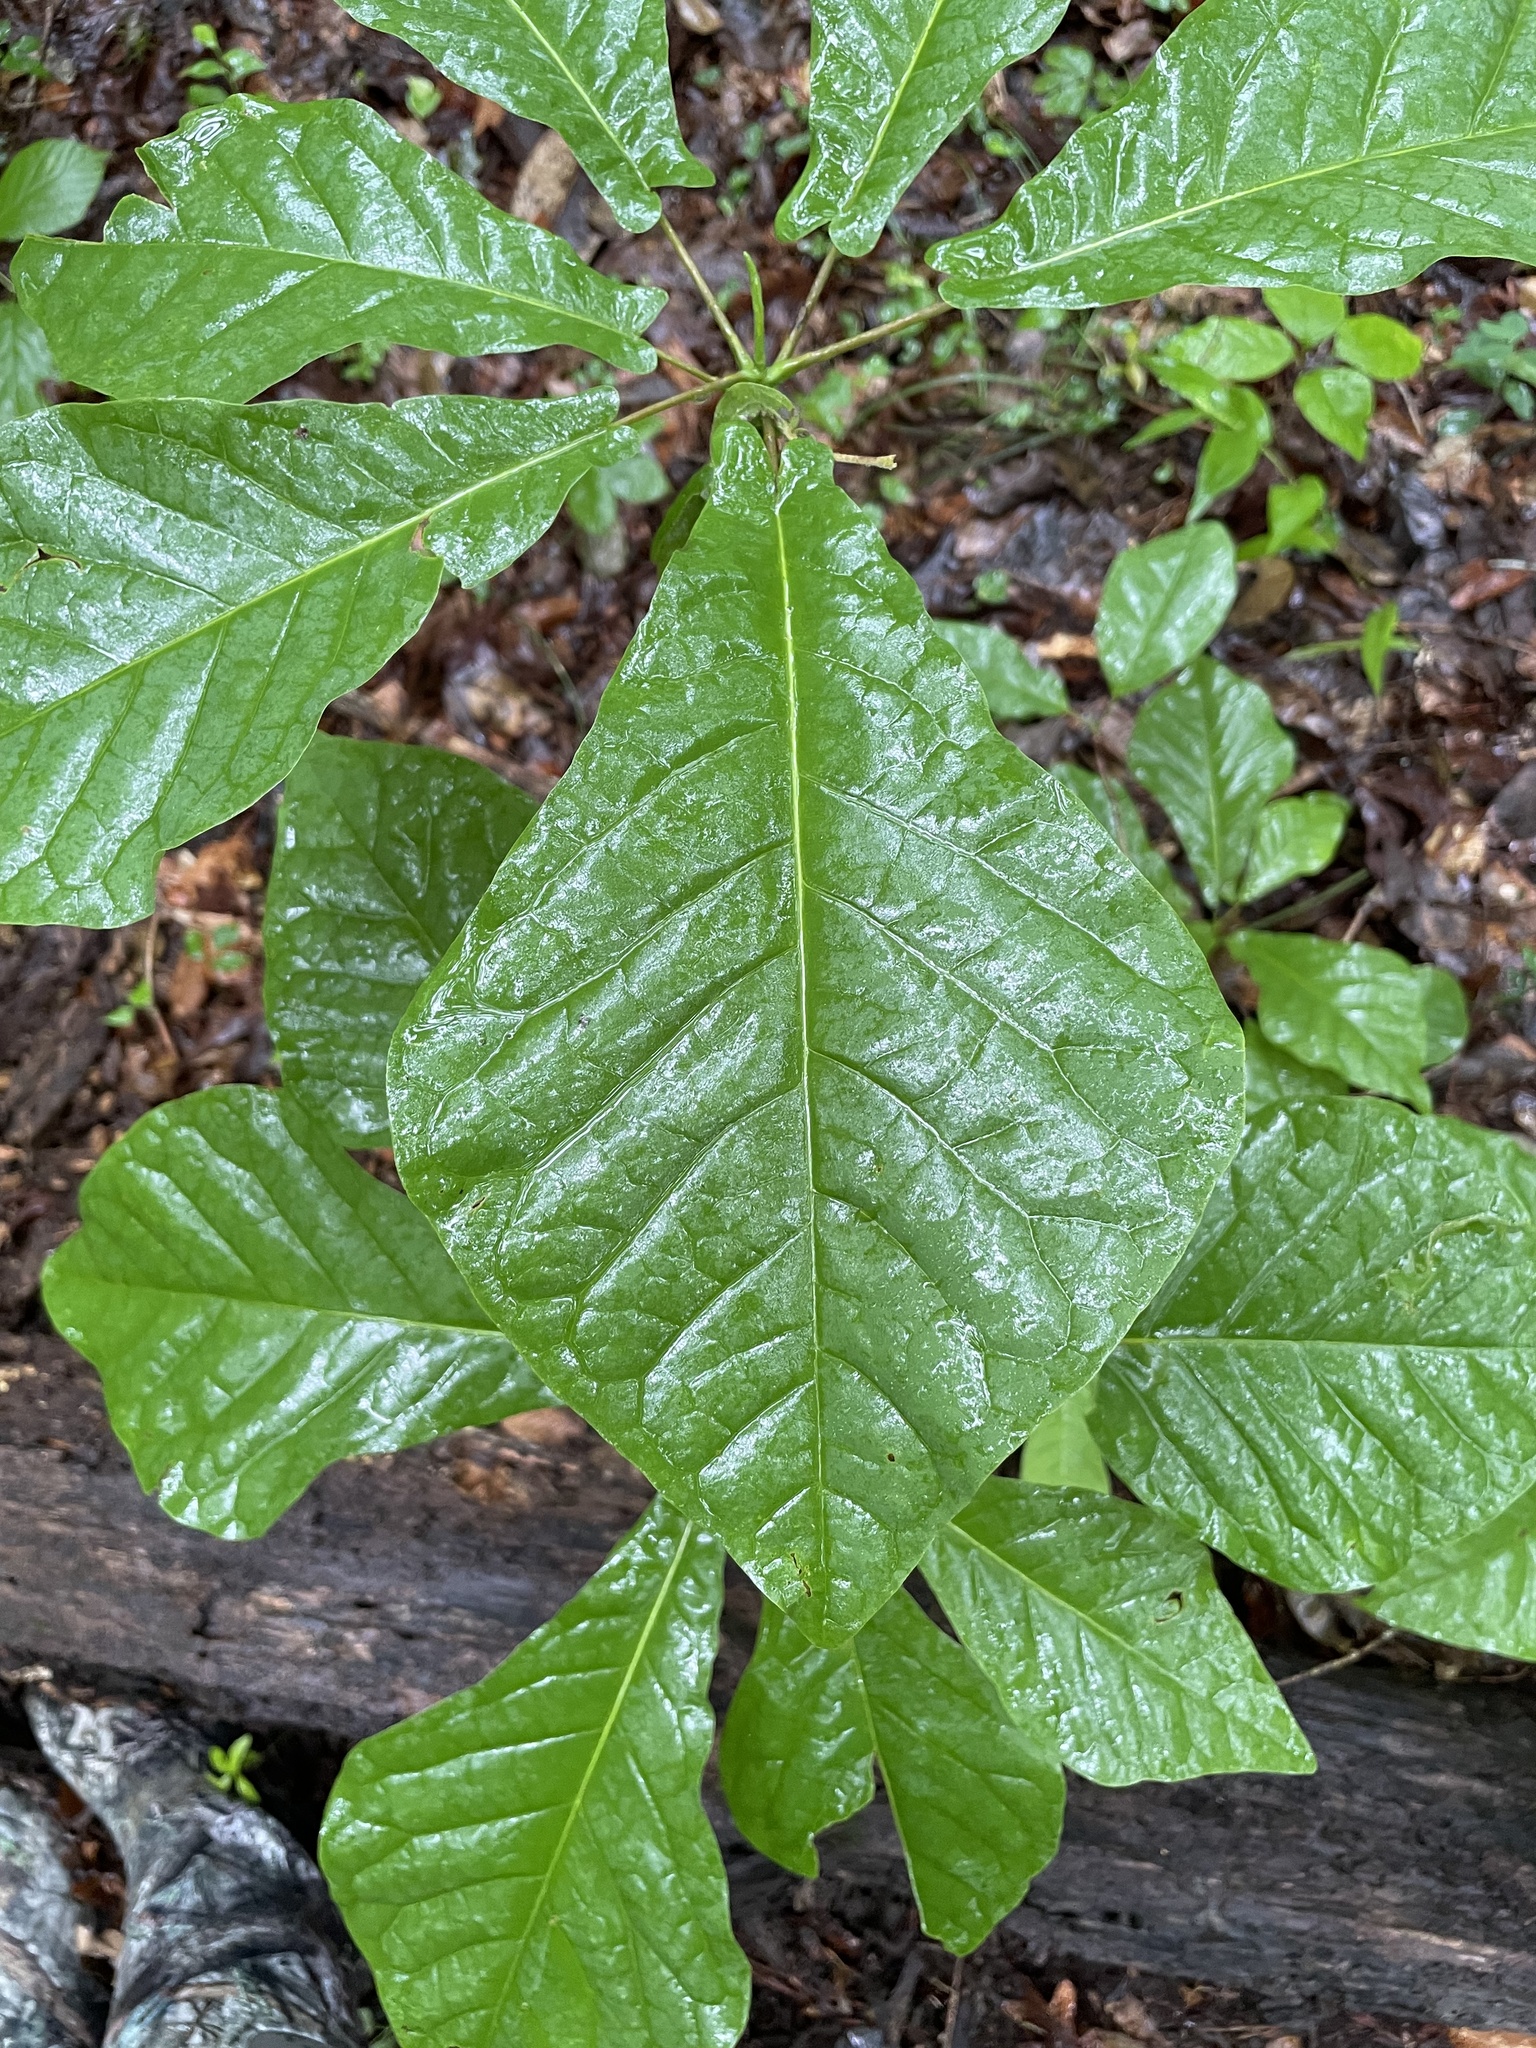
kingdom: Plantae
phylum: Tracheophyta
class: Magnoliopsida
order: Magnoliales
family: Magnoliaceae
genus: Magnolia
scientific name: Magnolia fraseri
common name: Fraser's magnolia
